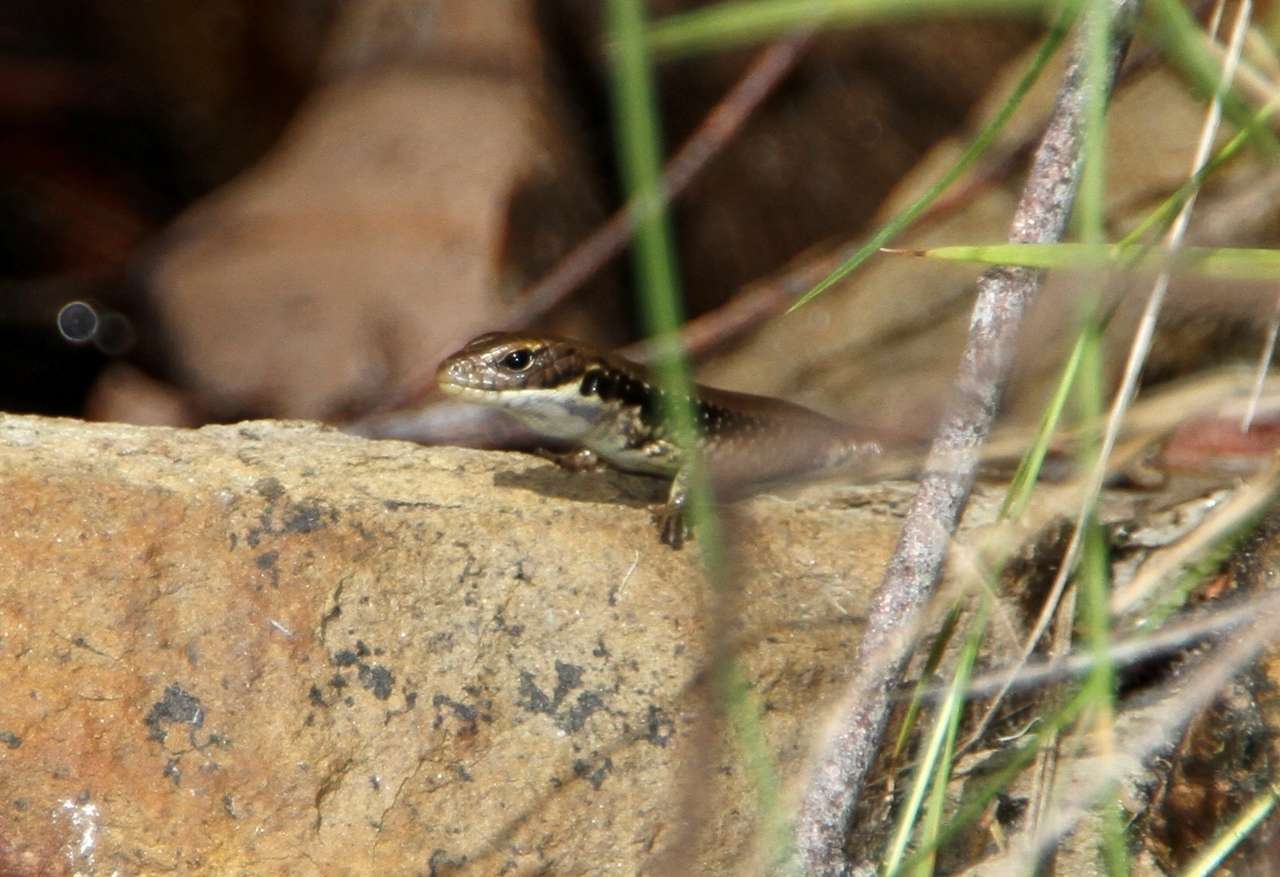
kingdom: Animalia
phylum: Chordata
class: Squamata
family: Scincidae
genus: Eulamprus
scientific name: Eulamprus tympanum
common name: Cool-temperate water-skink
